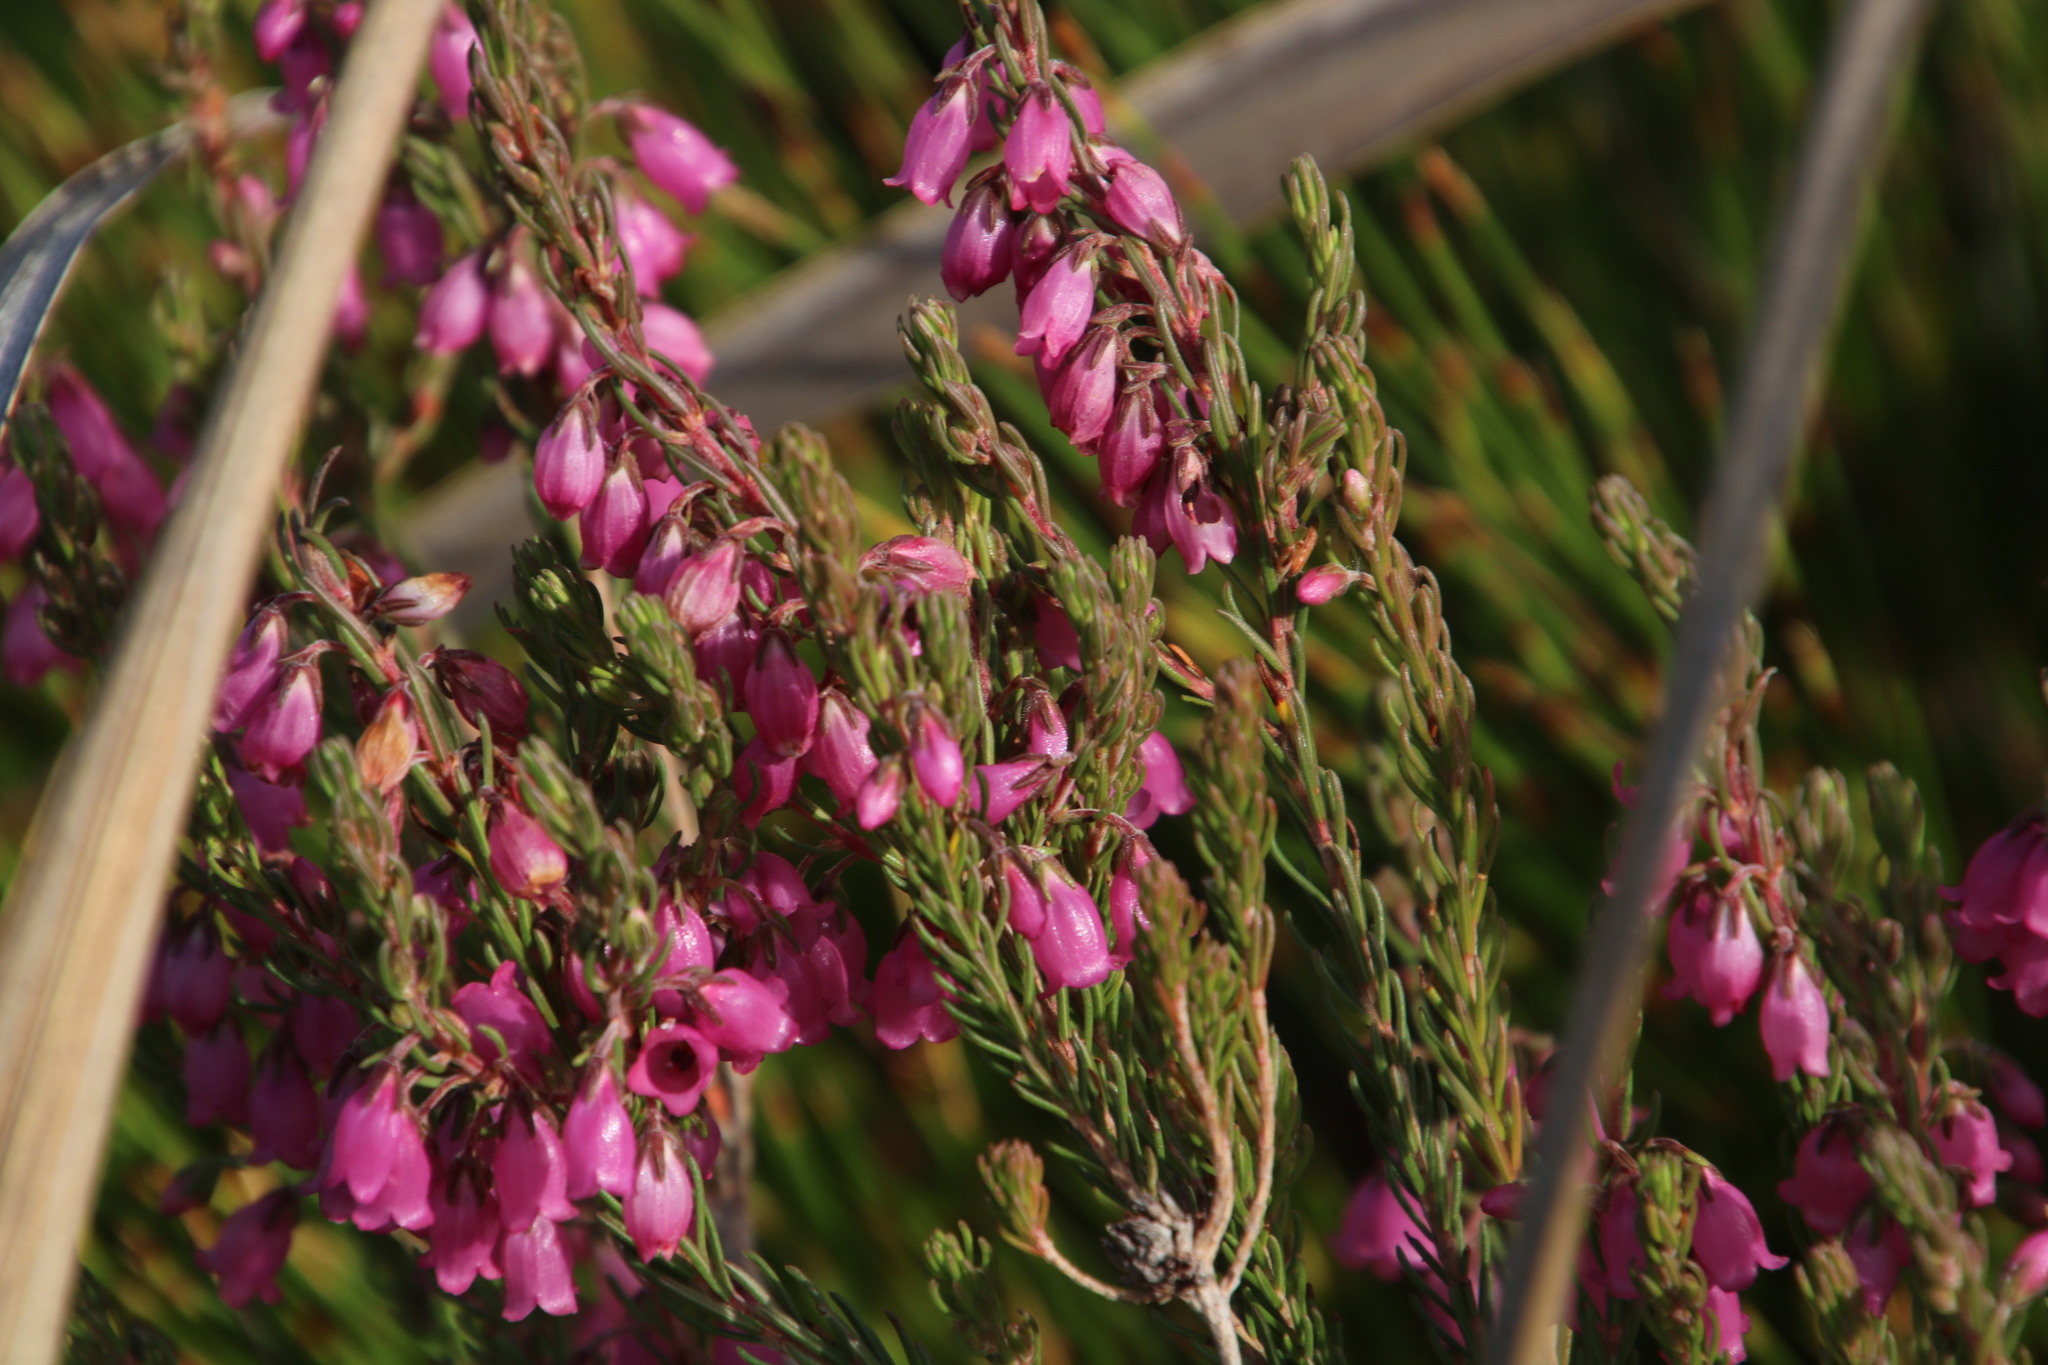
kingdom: Plantae
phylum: Tracheophyta
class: Magnoliopsida
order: Ericales
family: Ericaceae
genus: Erica
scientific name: Erica viscaria
